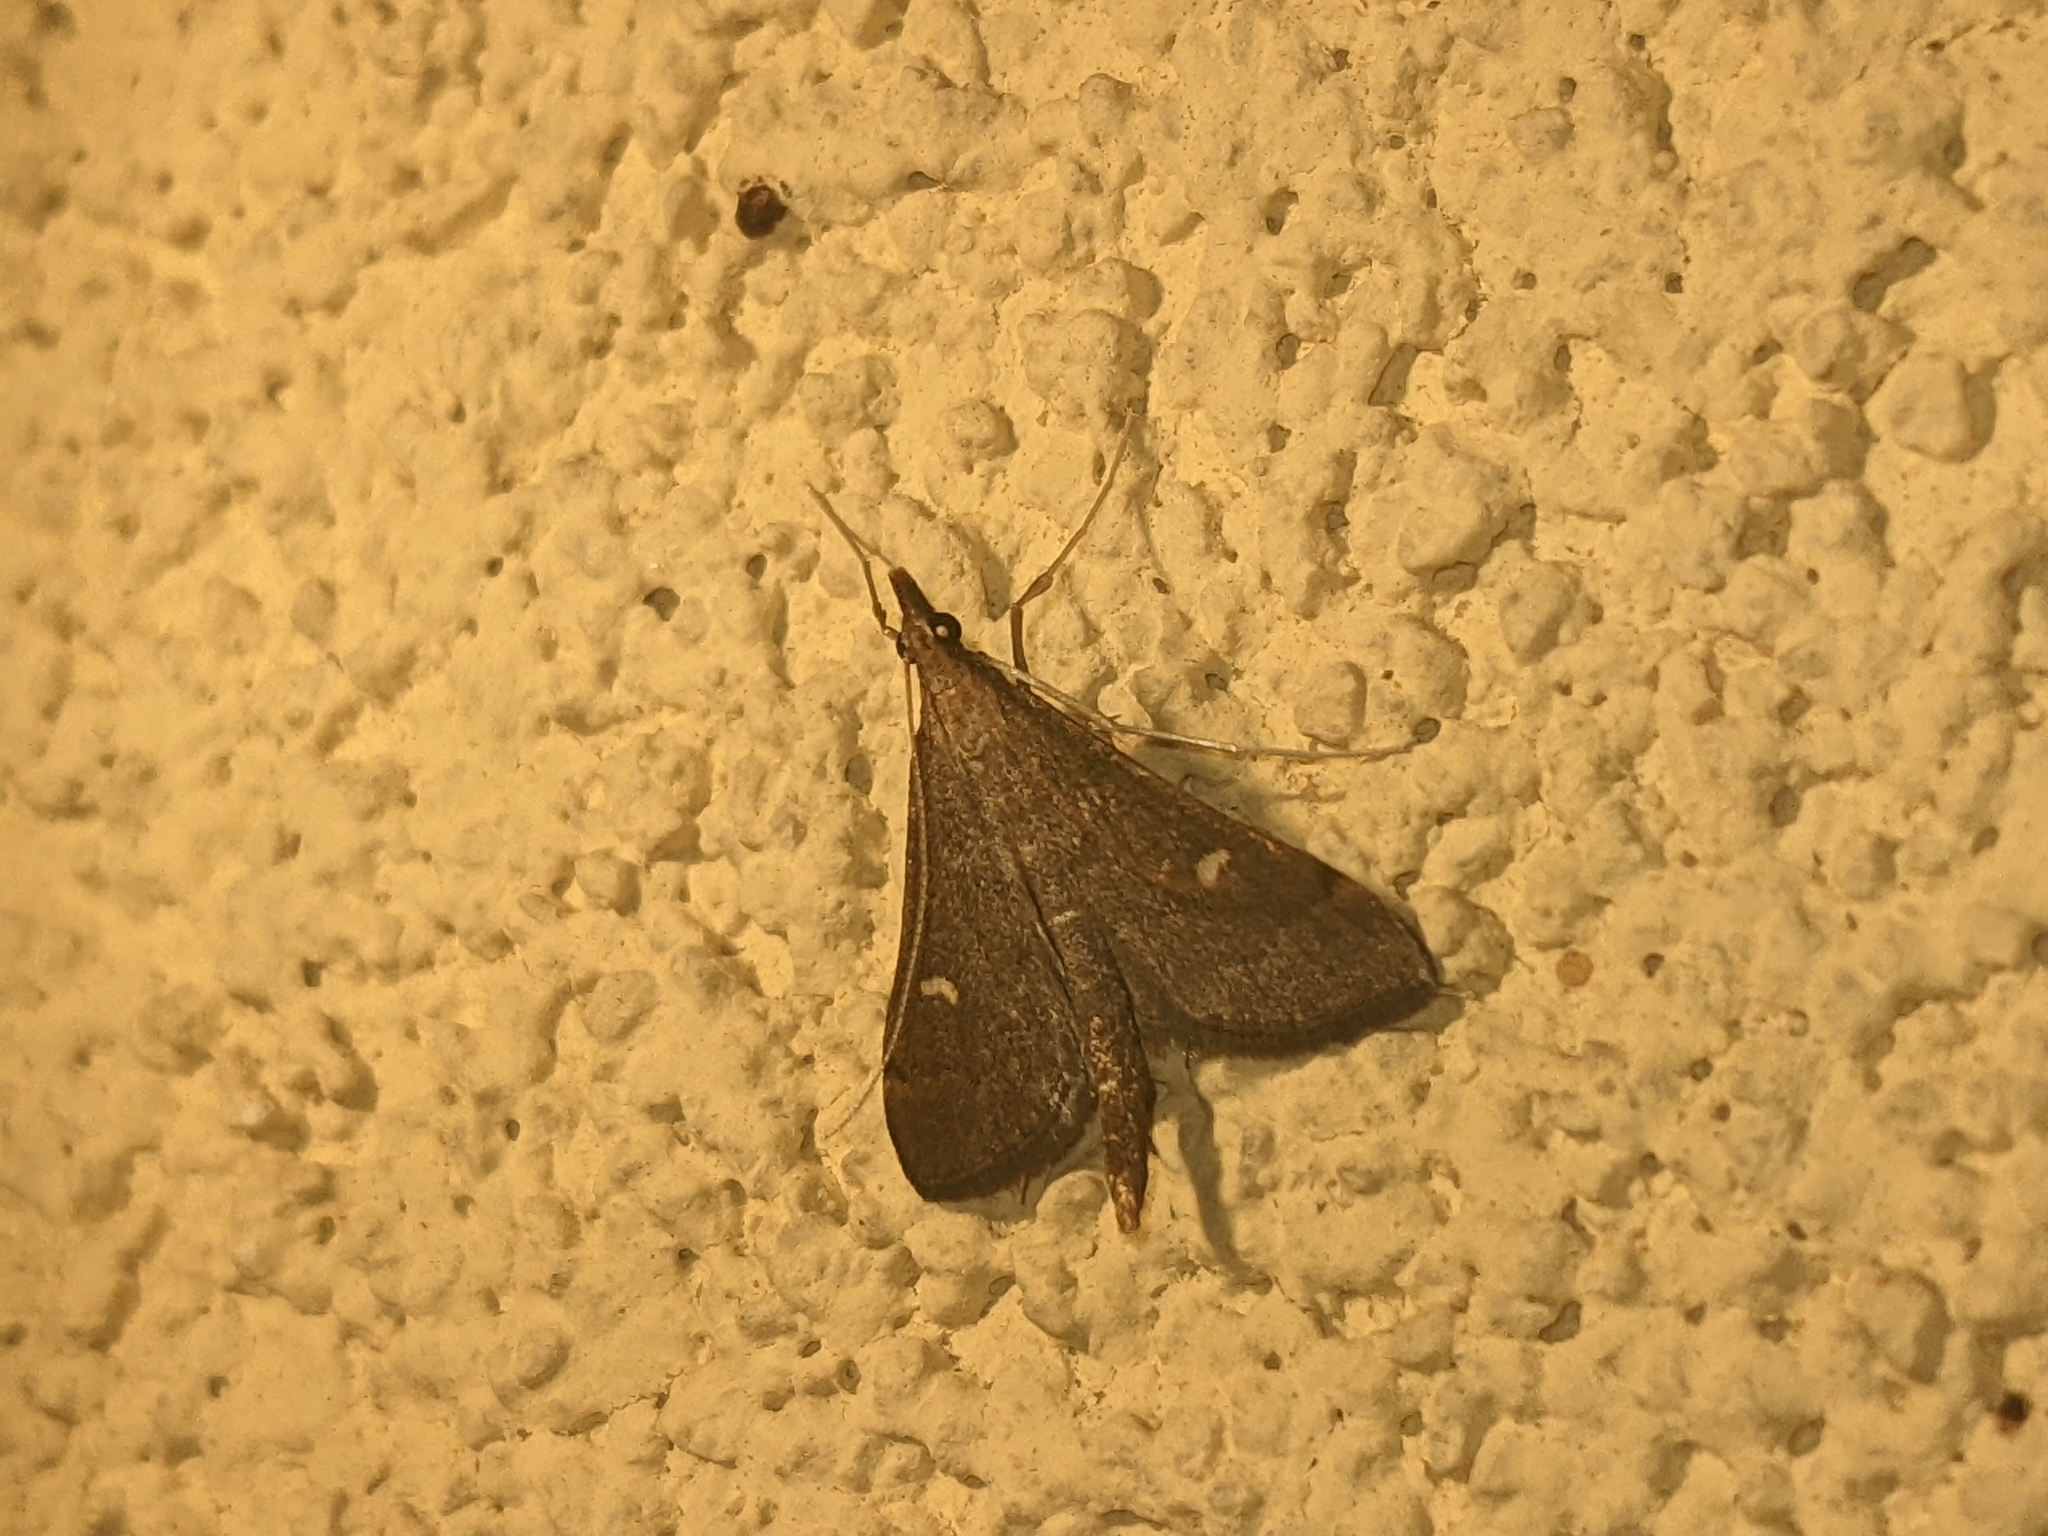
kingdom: Animalia
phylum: Arthropoda
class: Insecta
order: Lepidoptera
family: Crambidae
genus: Stenia
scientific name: Stenia Dolicharthria punctalis
